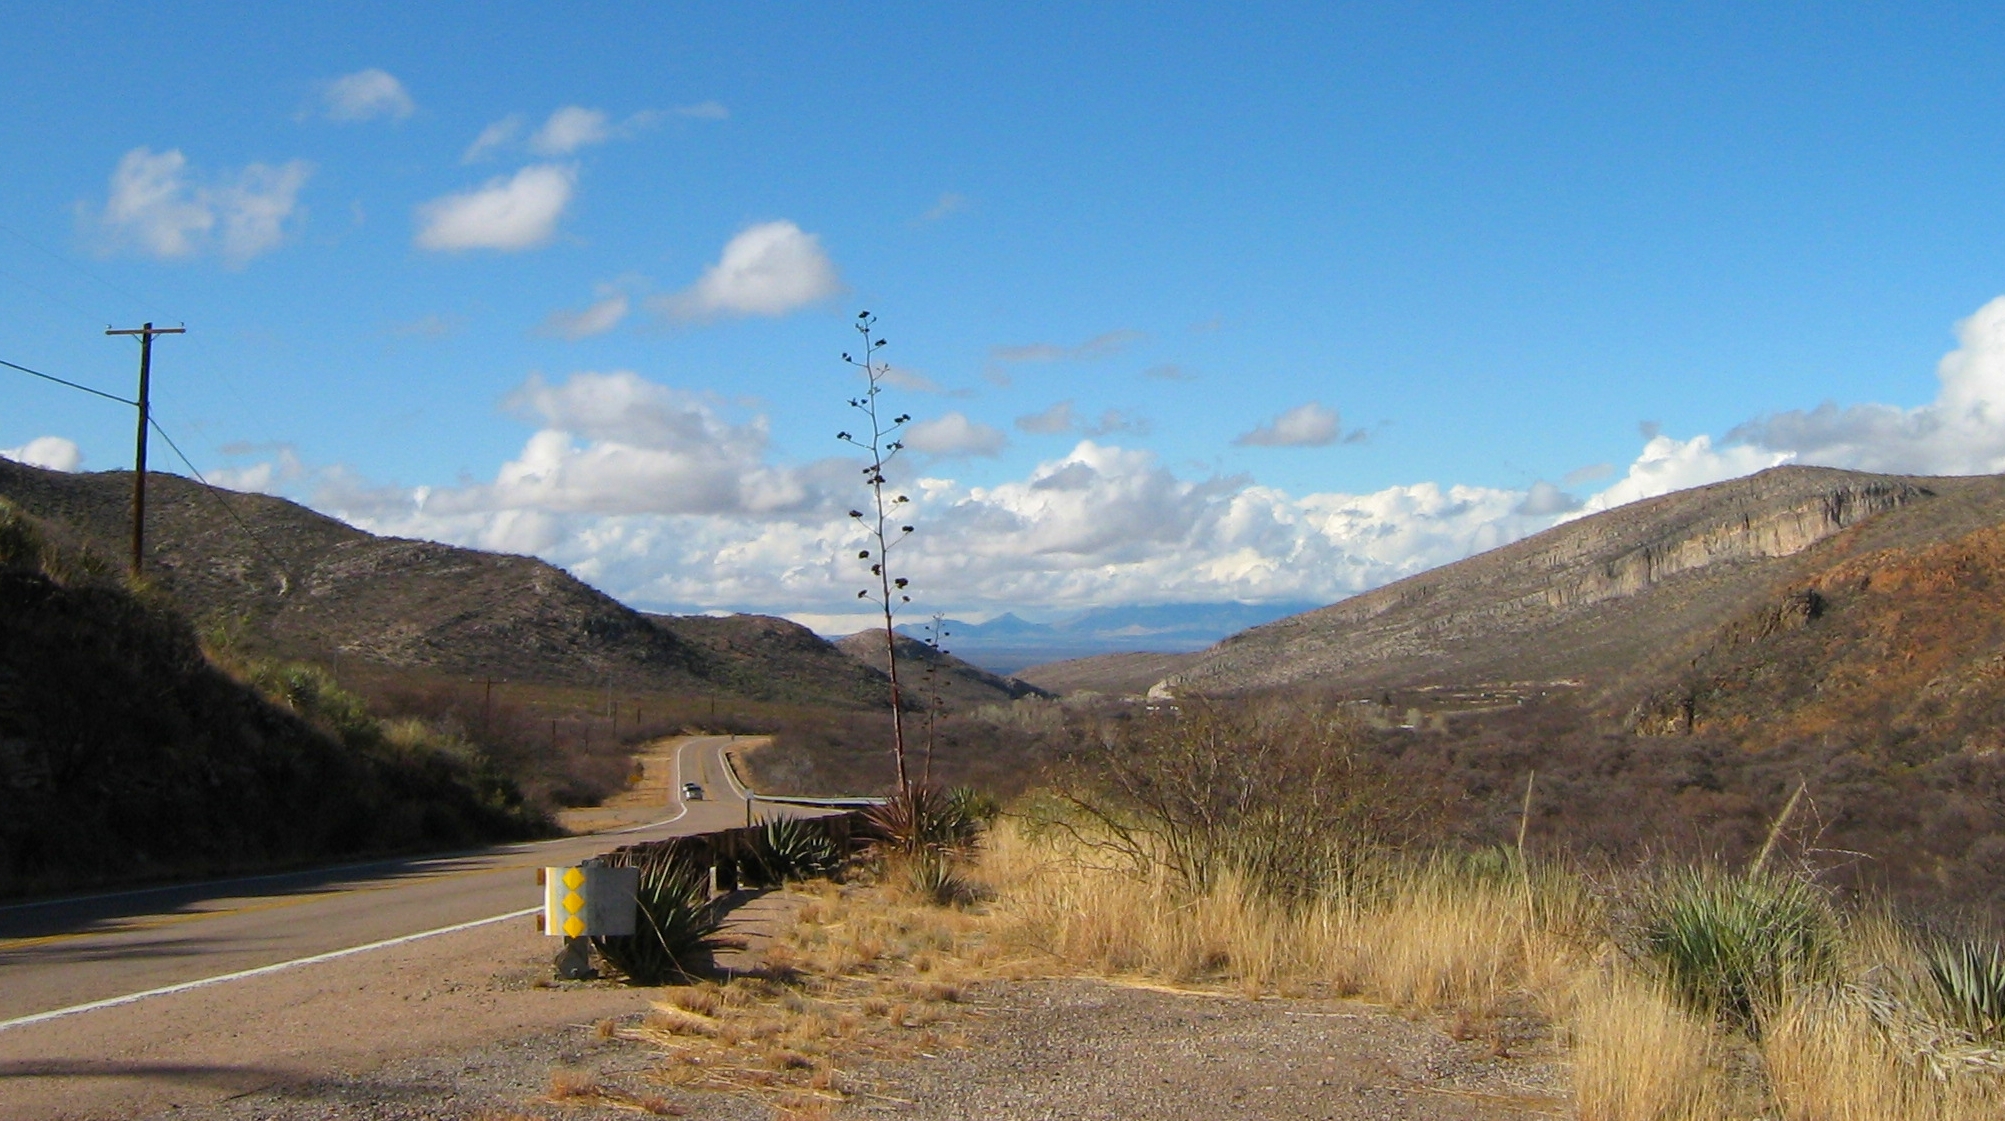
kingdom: Plantae
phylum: Tracheophyta
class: Liliopsida
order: Asparagales
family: Asparagaceae
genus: Agave
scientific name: Agave palmeri
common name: Palmer agave
